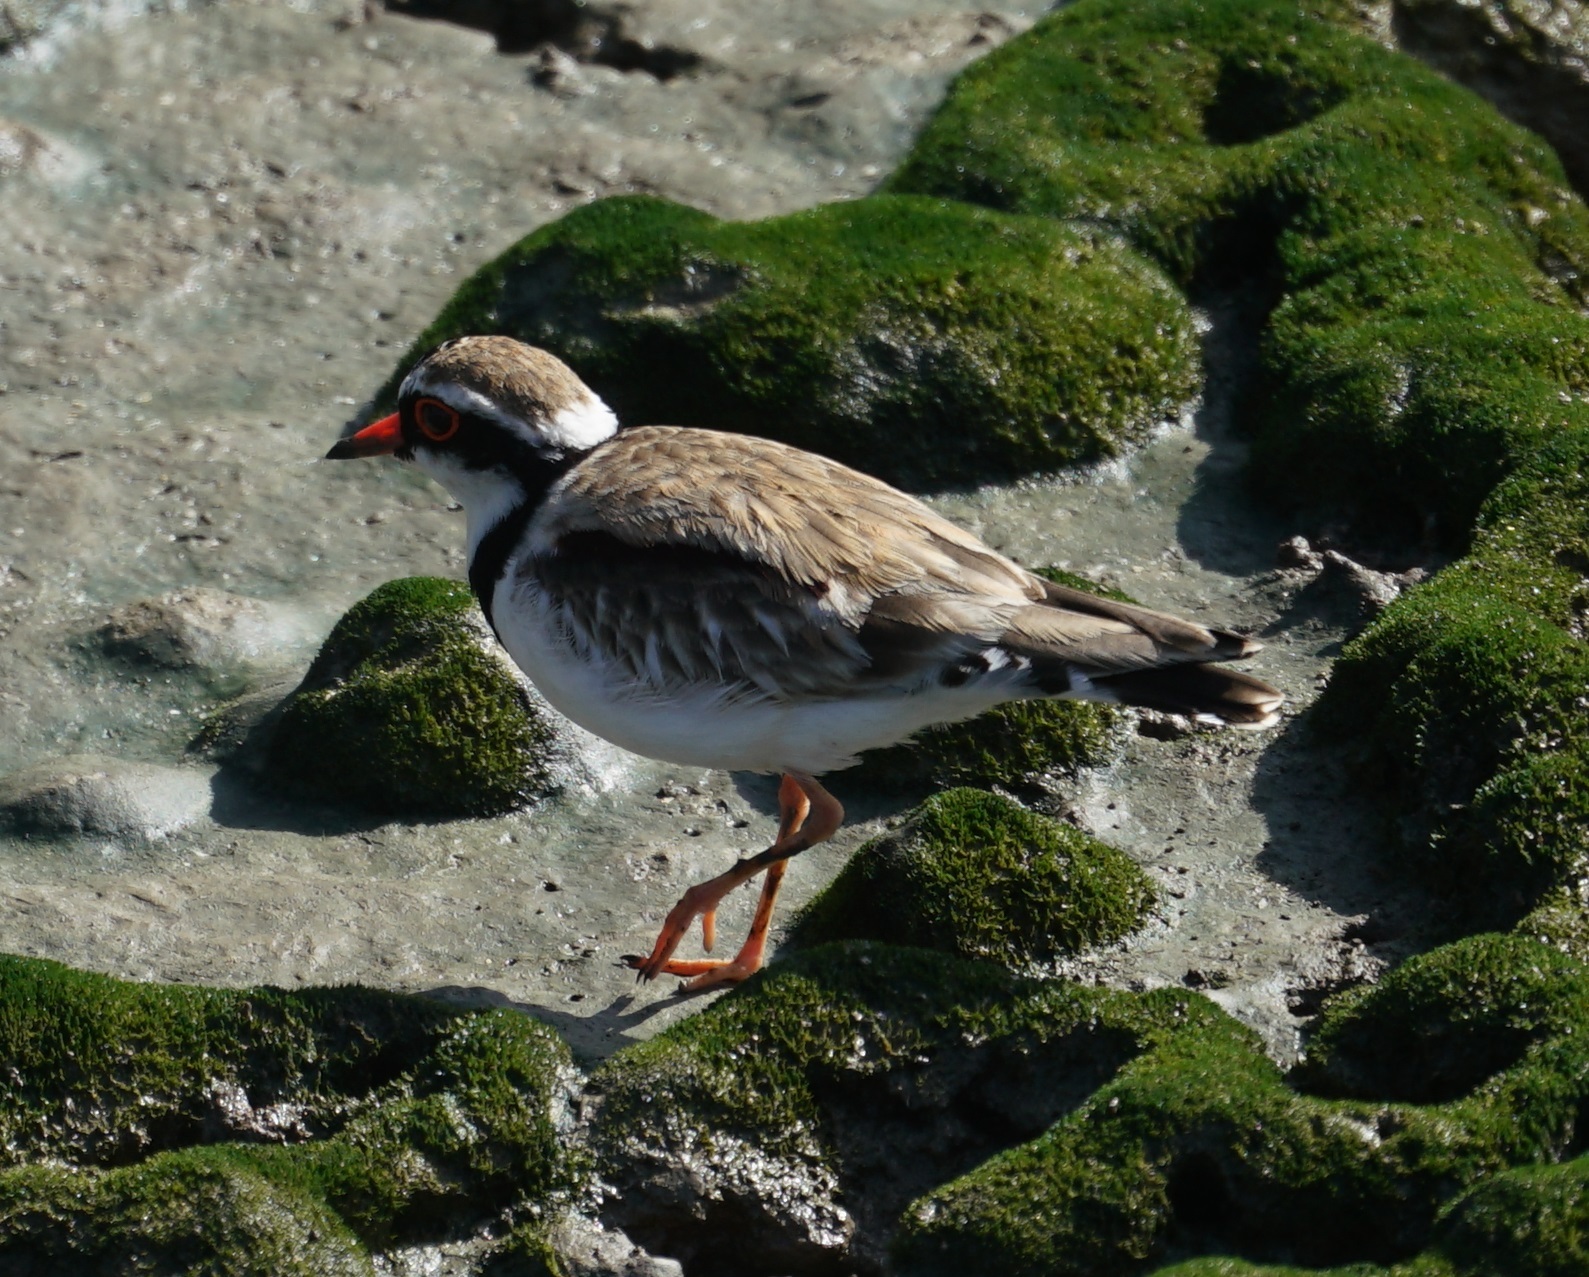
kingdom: Animalia
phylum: Chordata
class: Aves
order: Charadriiformes
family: Charadriidae
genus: Elseyornis
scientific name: Elseyornis melanops
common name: Black-fronted dotterel
